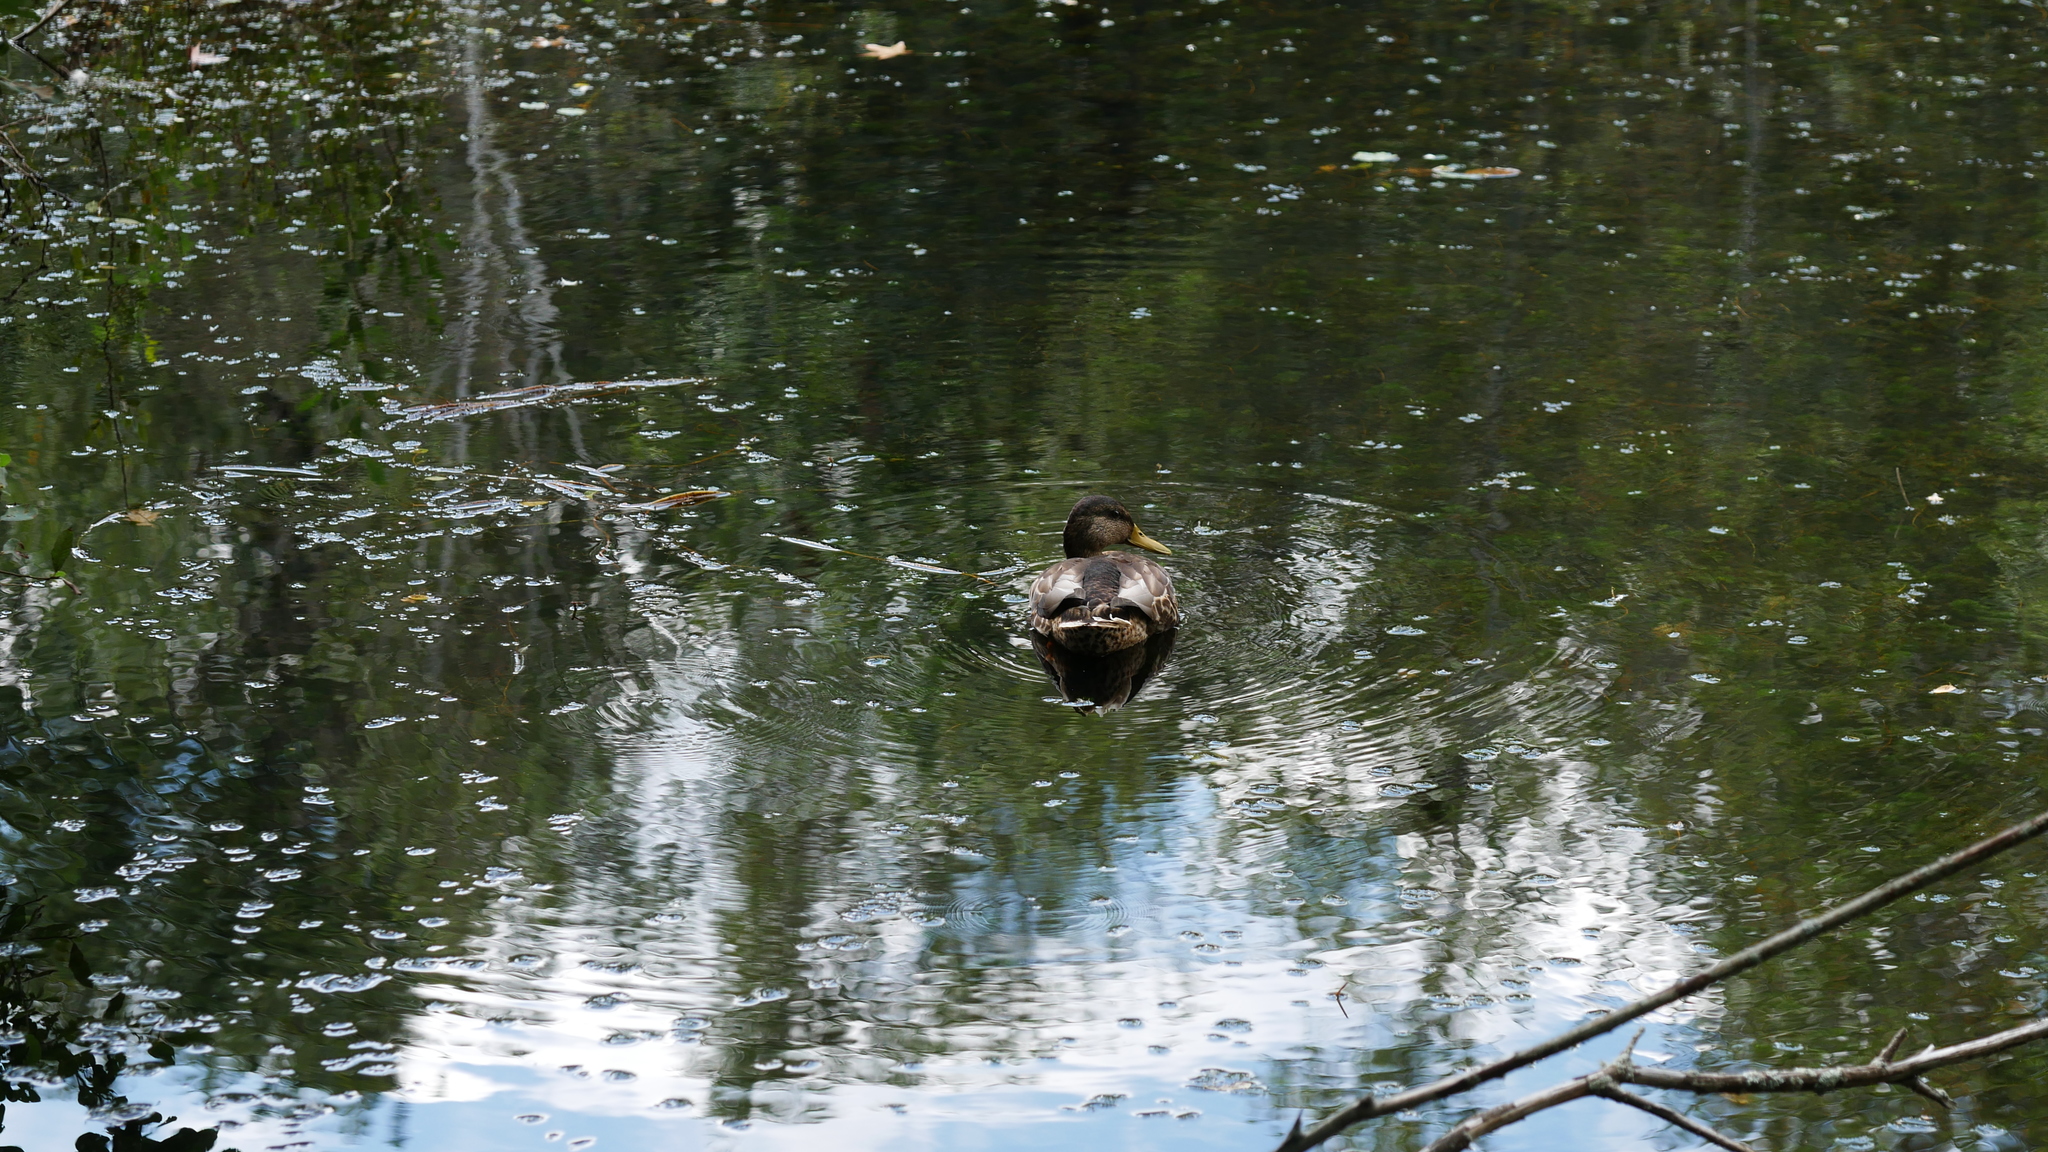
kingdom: Animalia
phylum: Chordata
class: Aves
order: Anseriformes
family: Anatidae
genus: Anas
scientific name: Anas platyrhynchos
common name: Mallard
